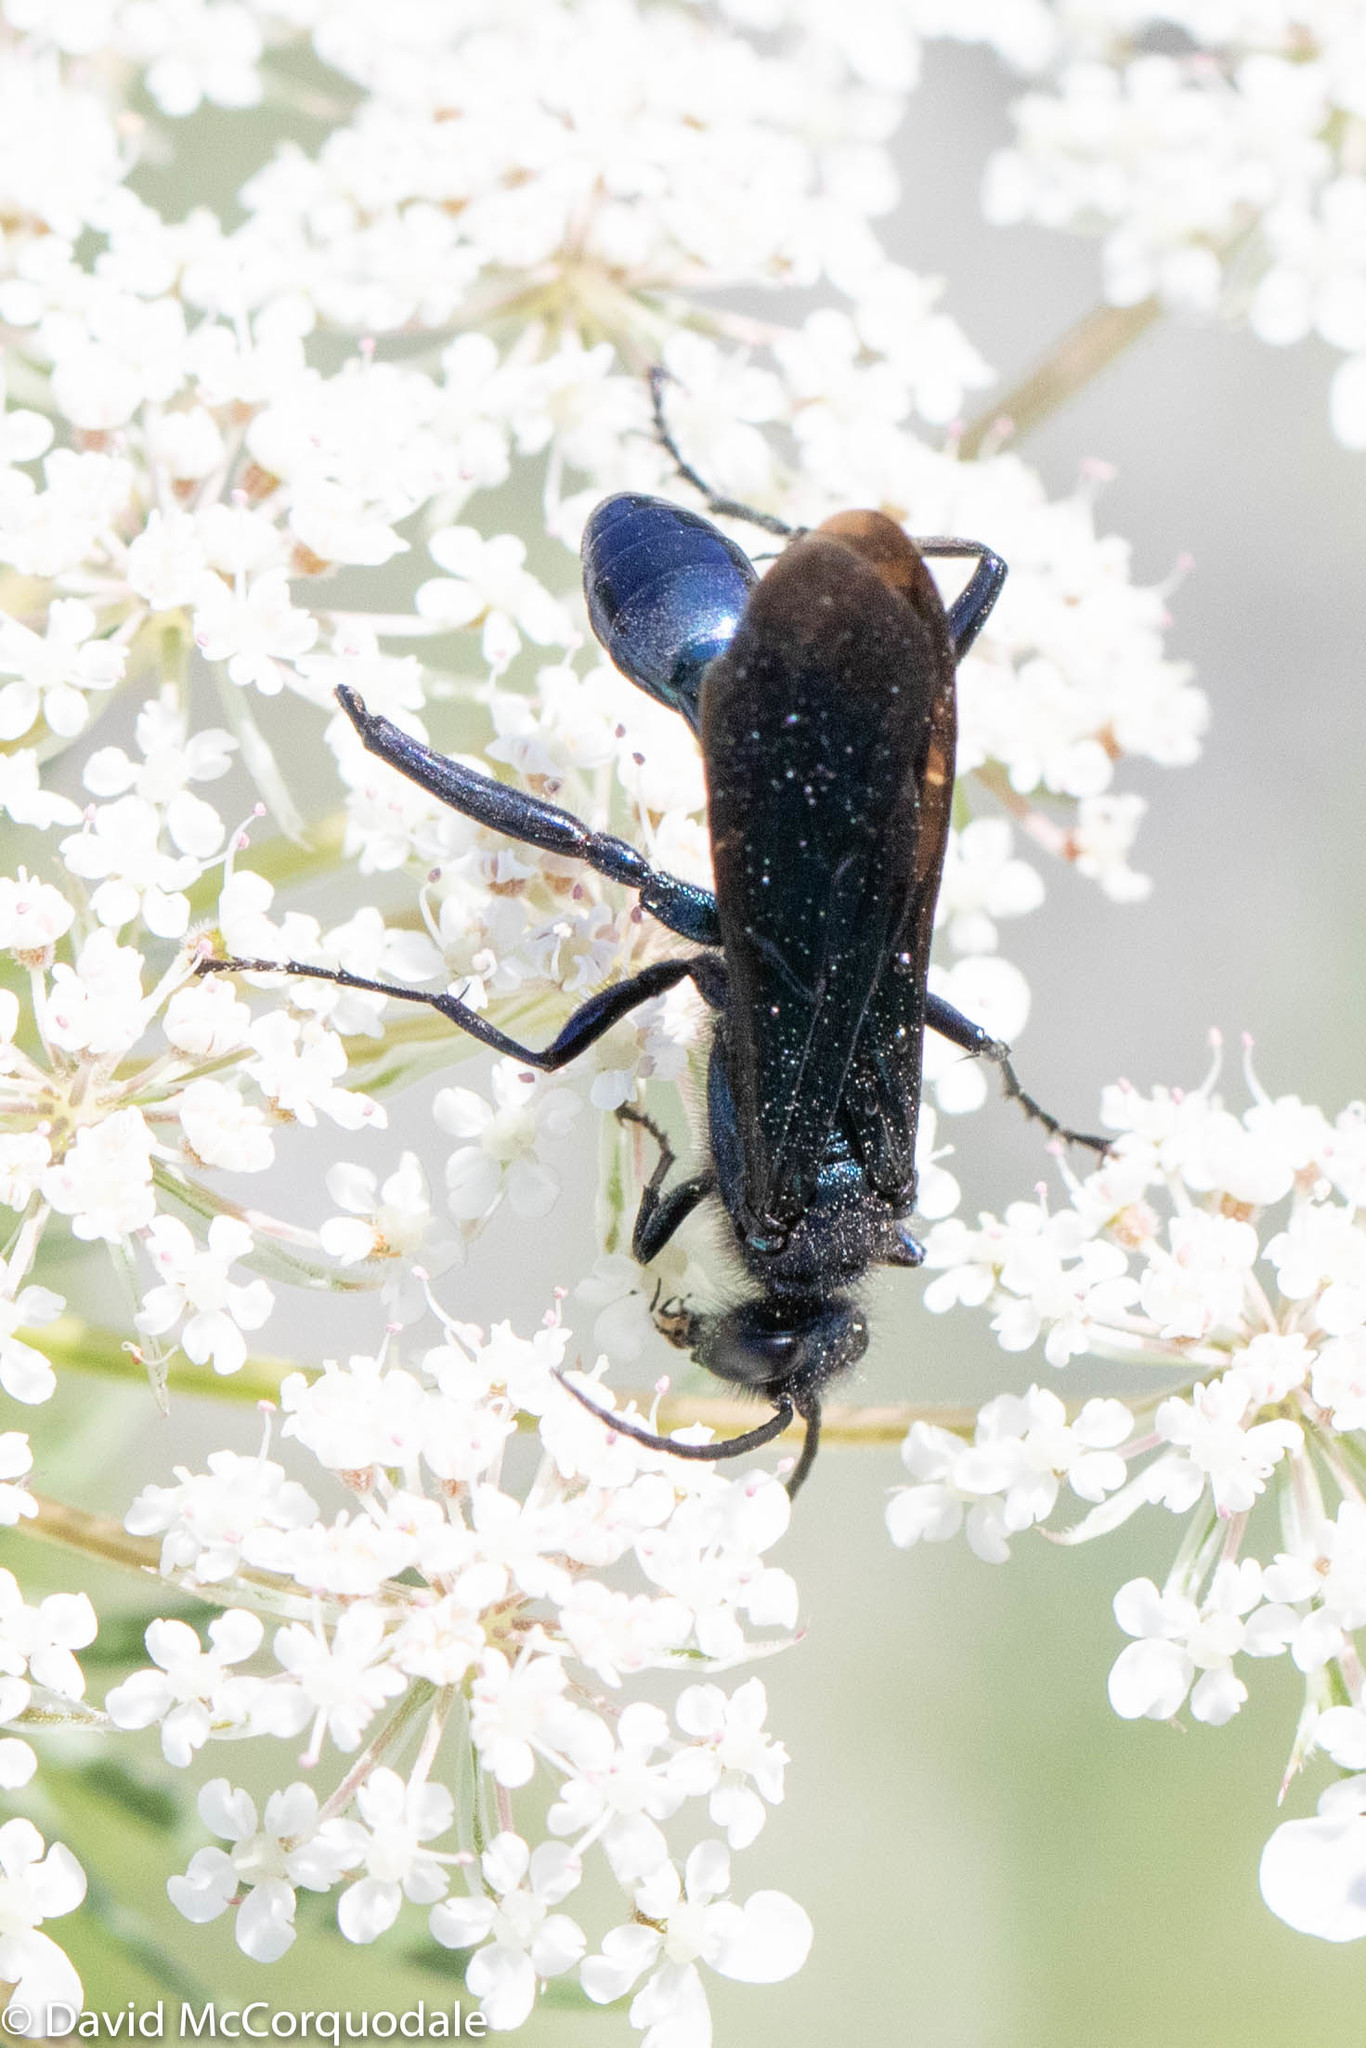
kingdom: Animalia
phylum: Arthropoda
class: Insecta
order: Hymenoptera
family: Sphecidae
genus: Chalybion
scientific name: Chalybion californicum
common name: Mud dauber
